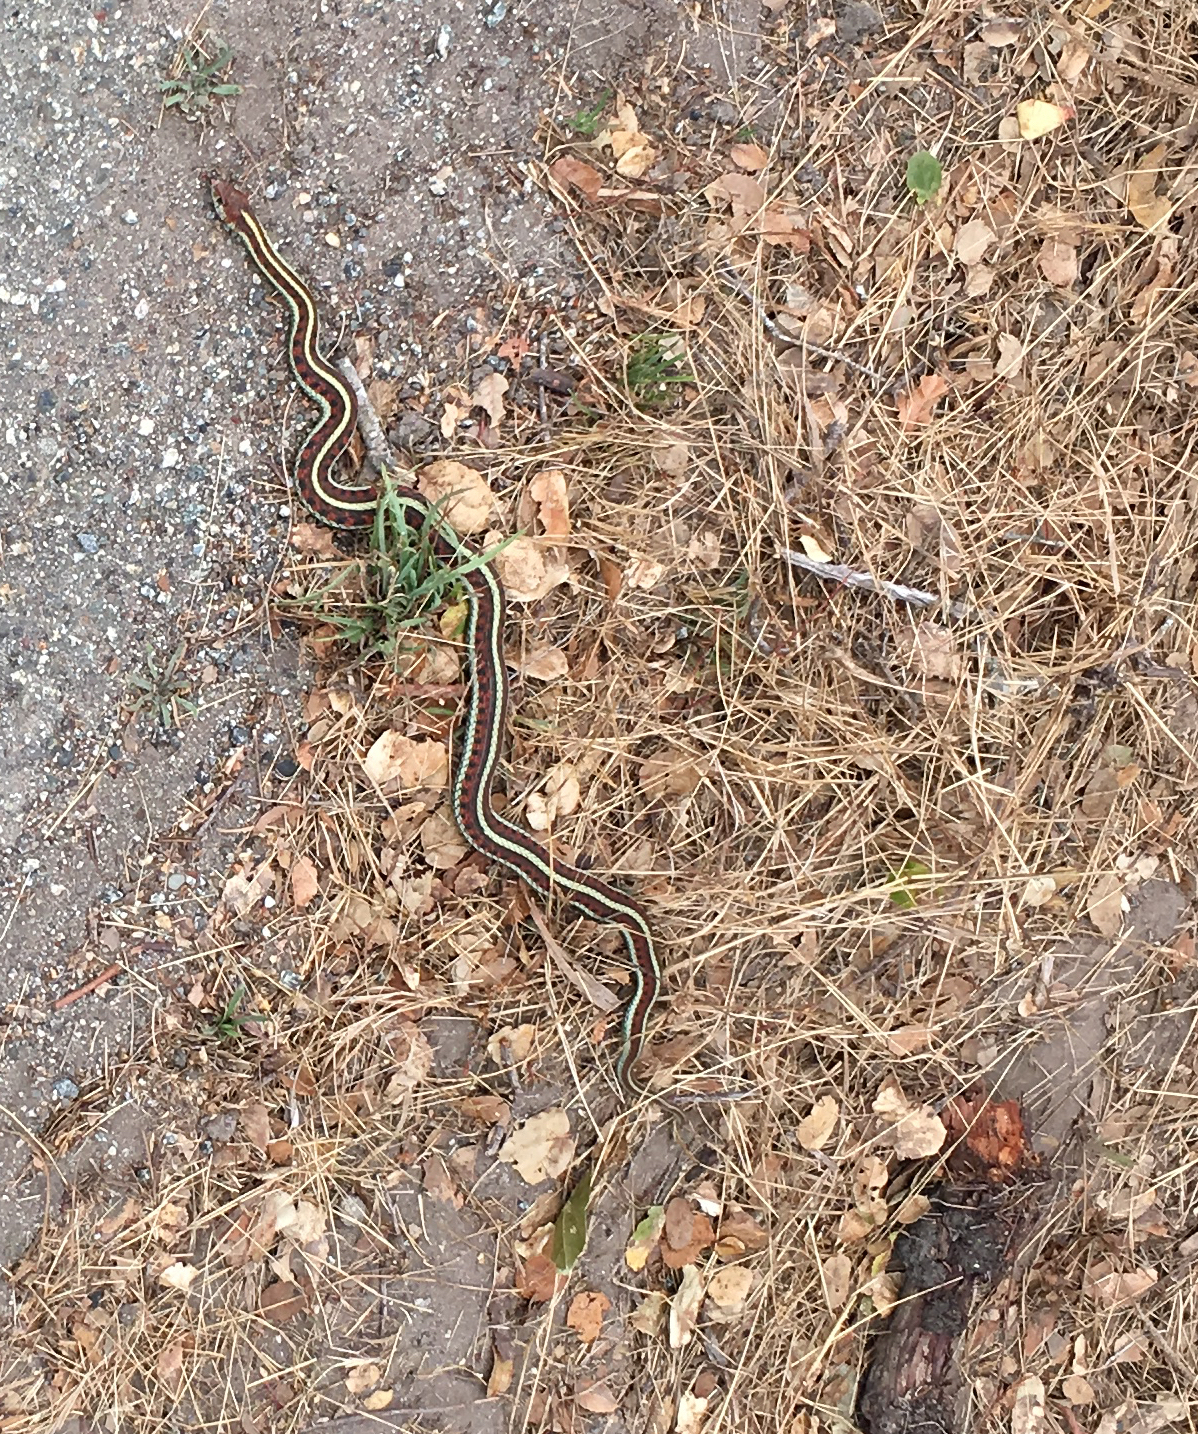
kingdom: Animalia
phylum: Chordata
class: Squamata
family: Colubridae
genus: Thamnophis
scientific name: Thamnophis sirtalis
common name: Common garter snake
